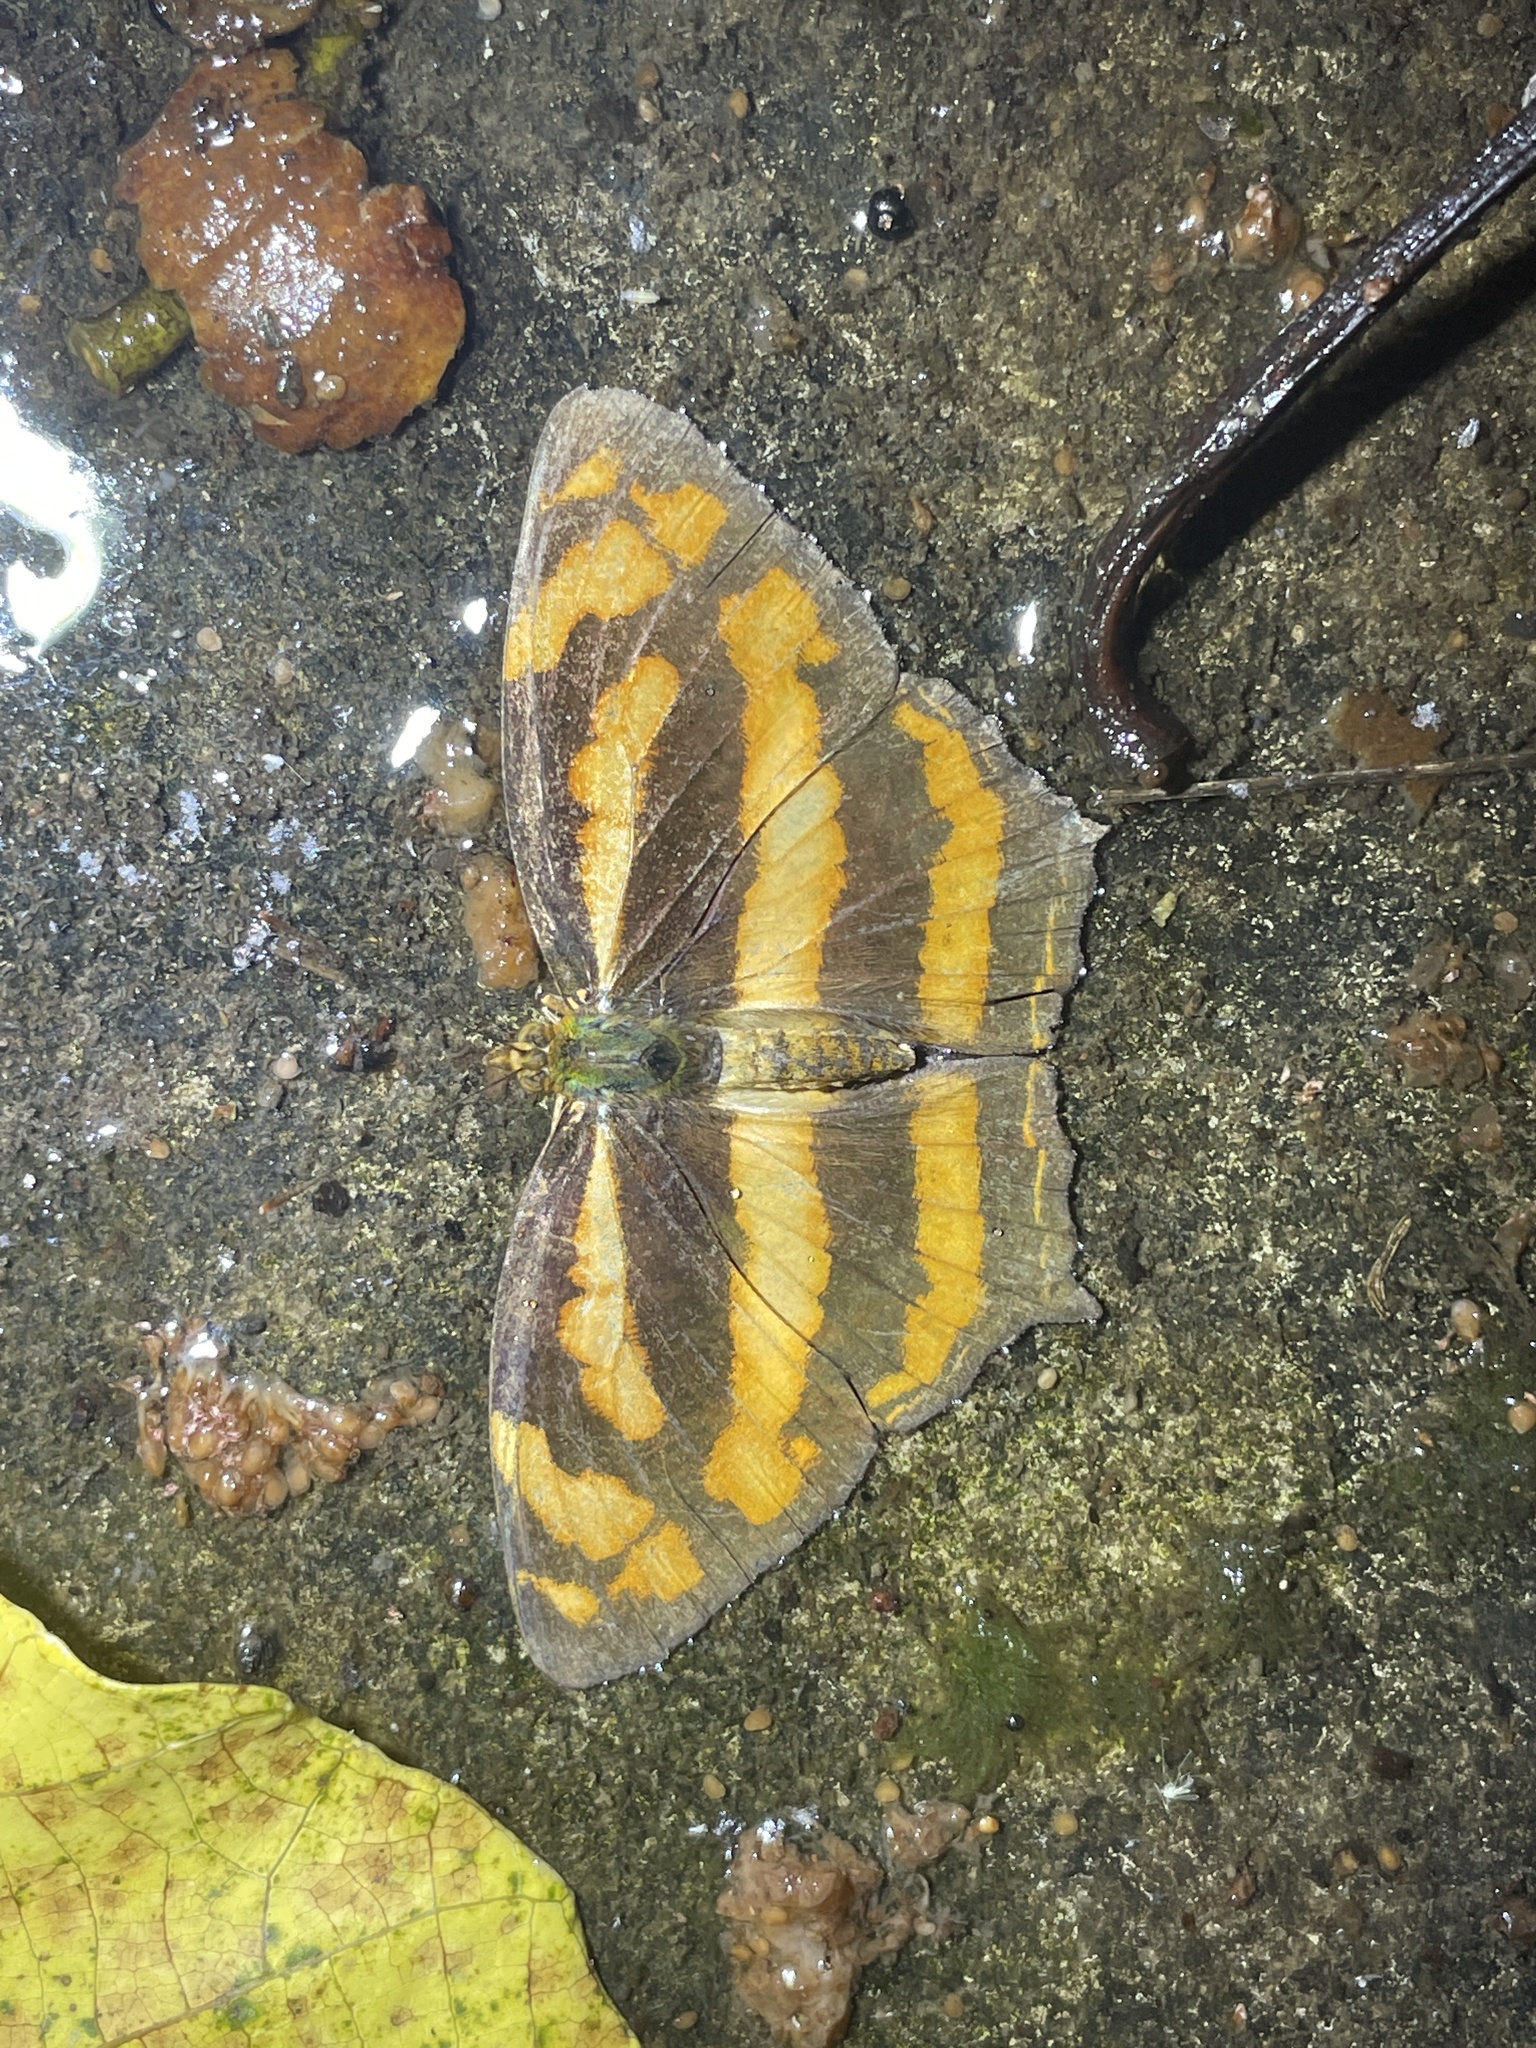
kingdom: Animalia
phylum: Arthropoda
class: Insecta
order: Lepidoptera
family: Nymphalidae
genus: Symbrenthia
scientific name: Symbrenthia hypselis
